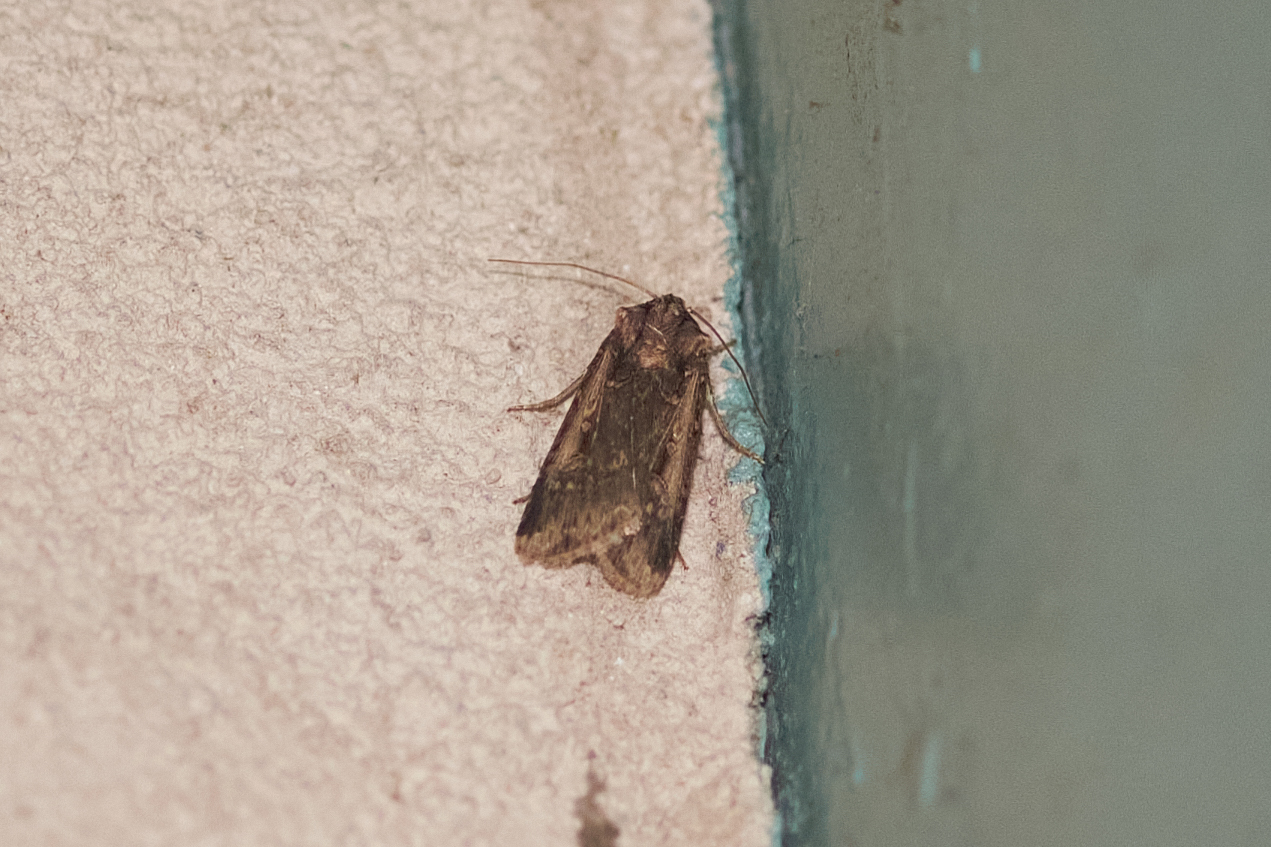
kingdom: Animalia
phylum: Arthropoda
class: Insecta
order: Lepidoptera
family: Noctuidae
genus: Feltia
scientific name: Feltia subterranea
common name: Granulate cutworm
